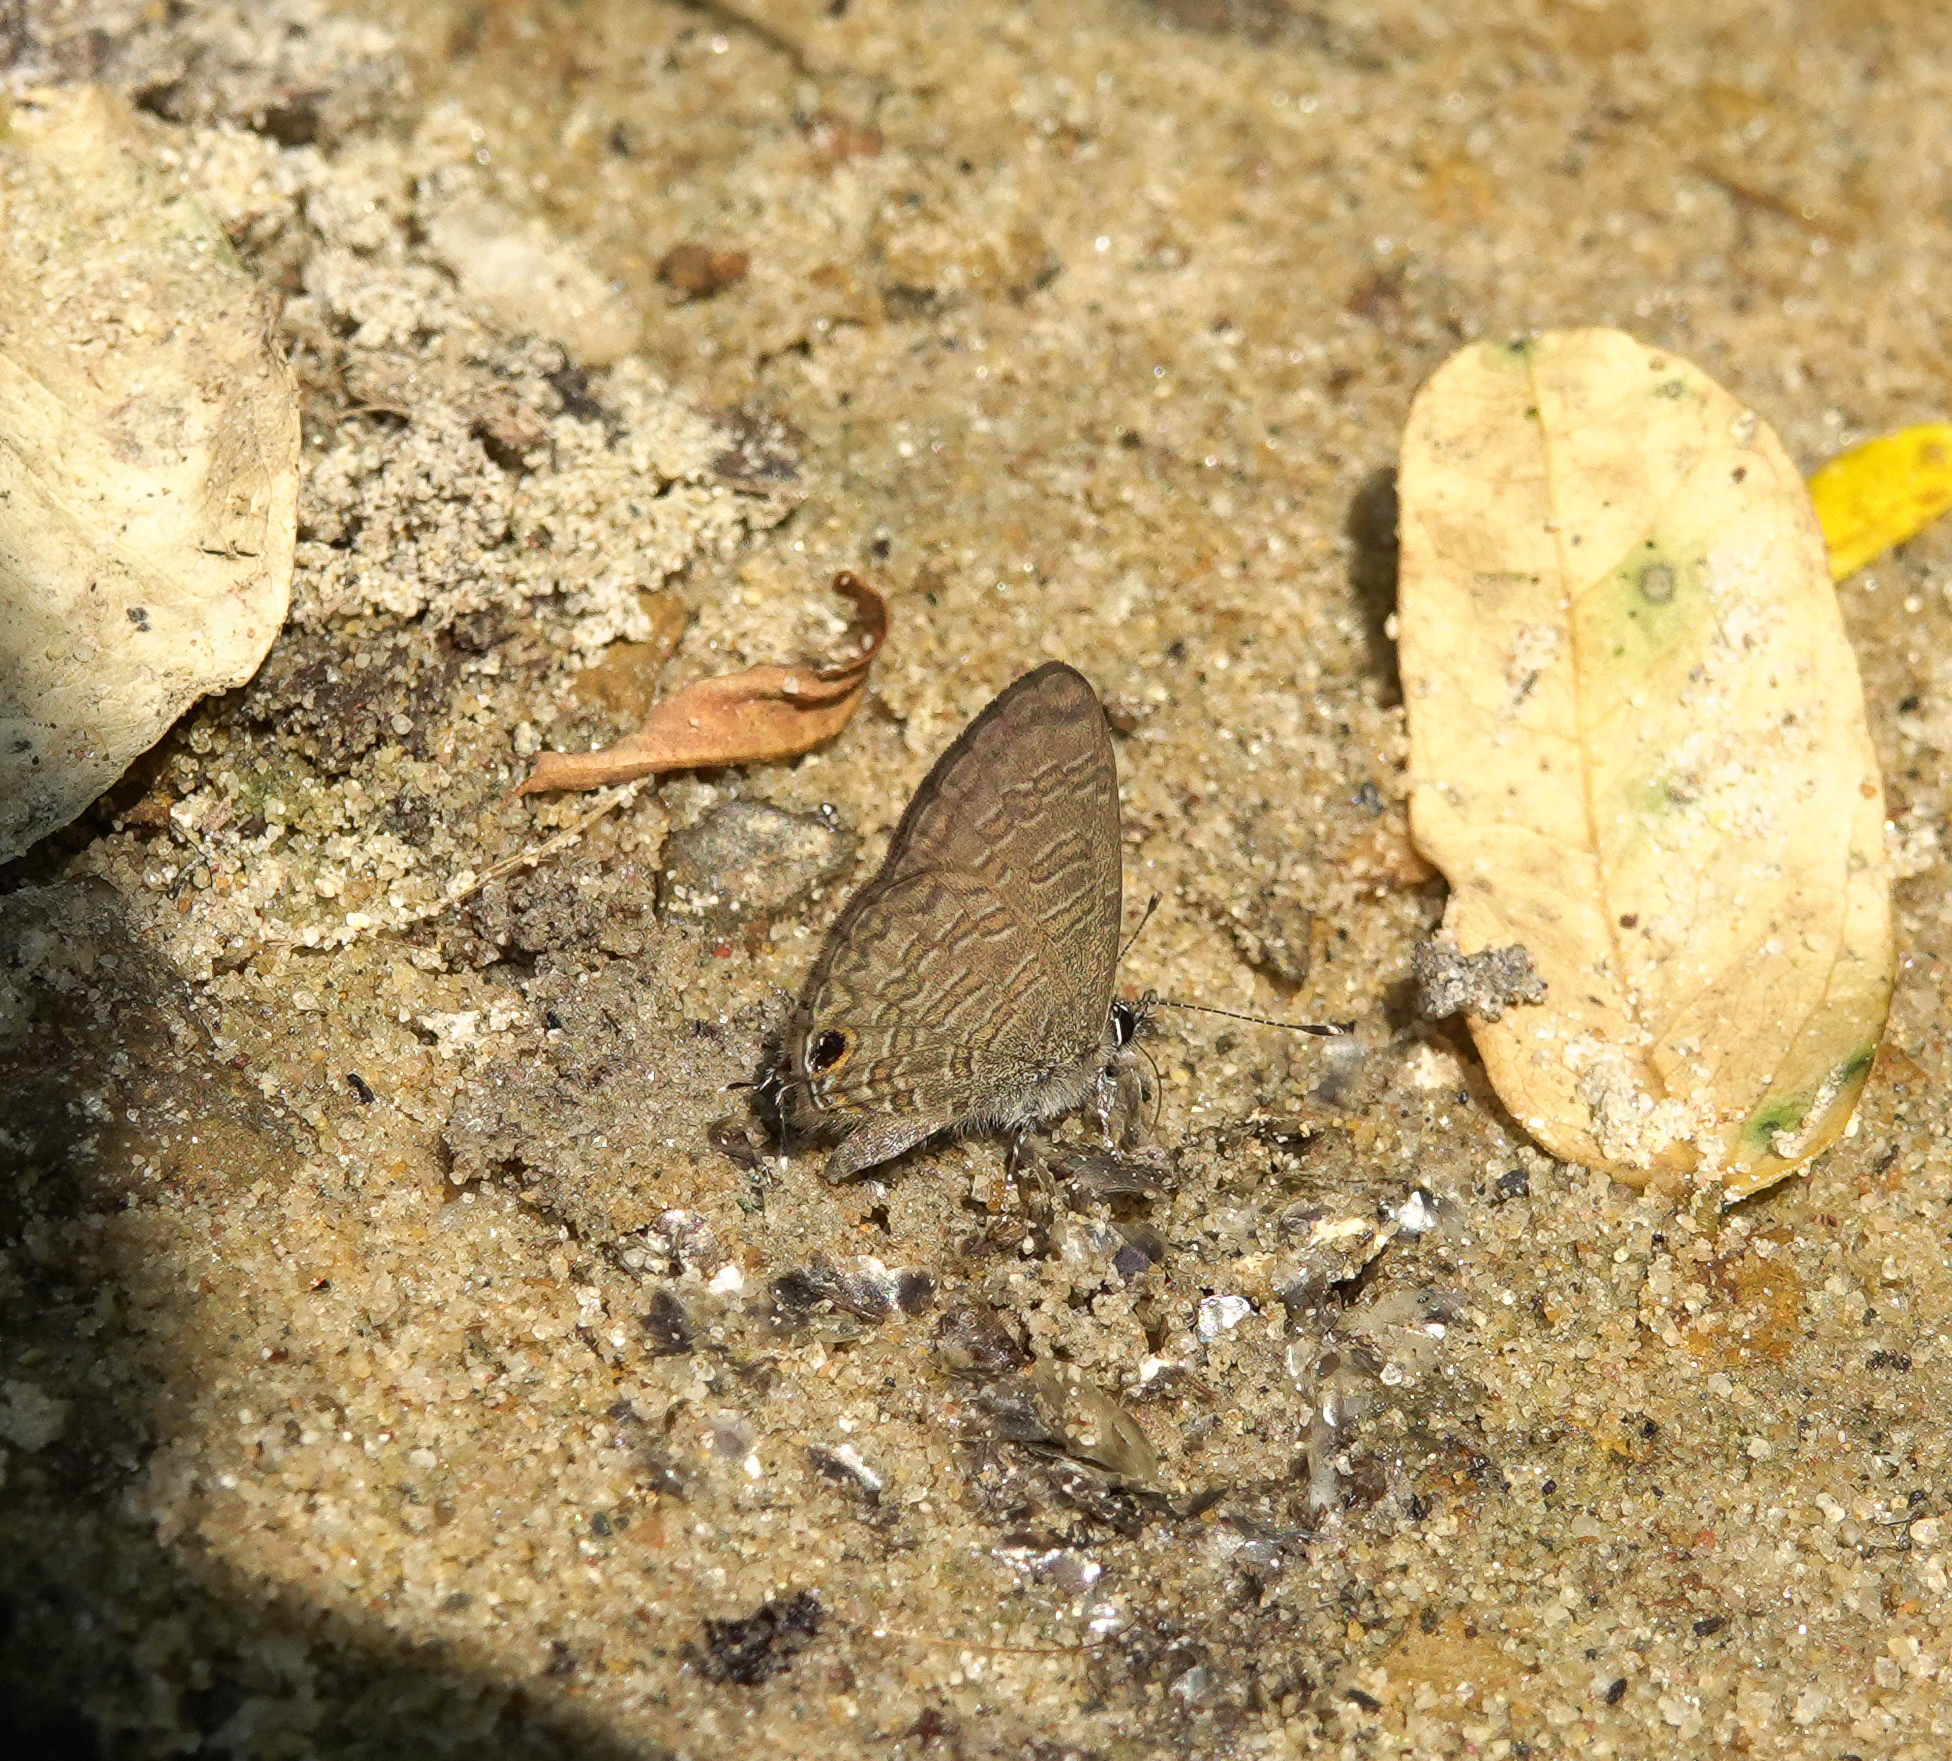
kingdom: Animalia
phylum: Arthropoda
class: Insecta
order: Lepidoptera
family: Lycaenidae
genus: Prosotas
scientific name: Prosotas dubiosa
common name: Tailless lineblue
